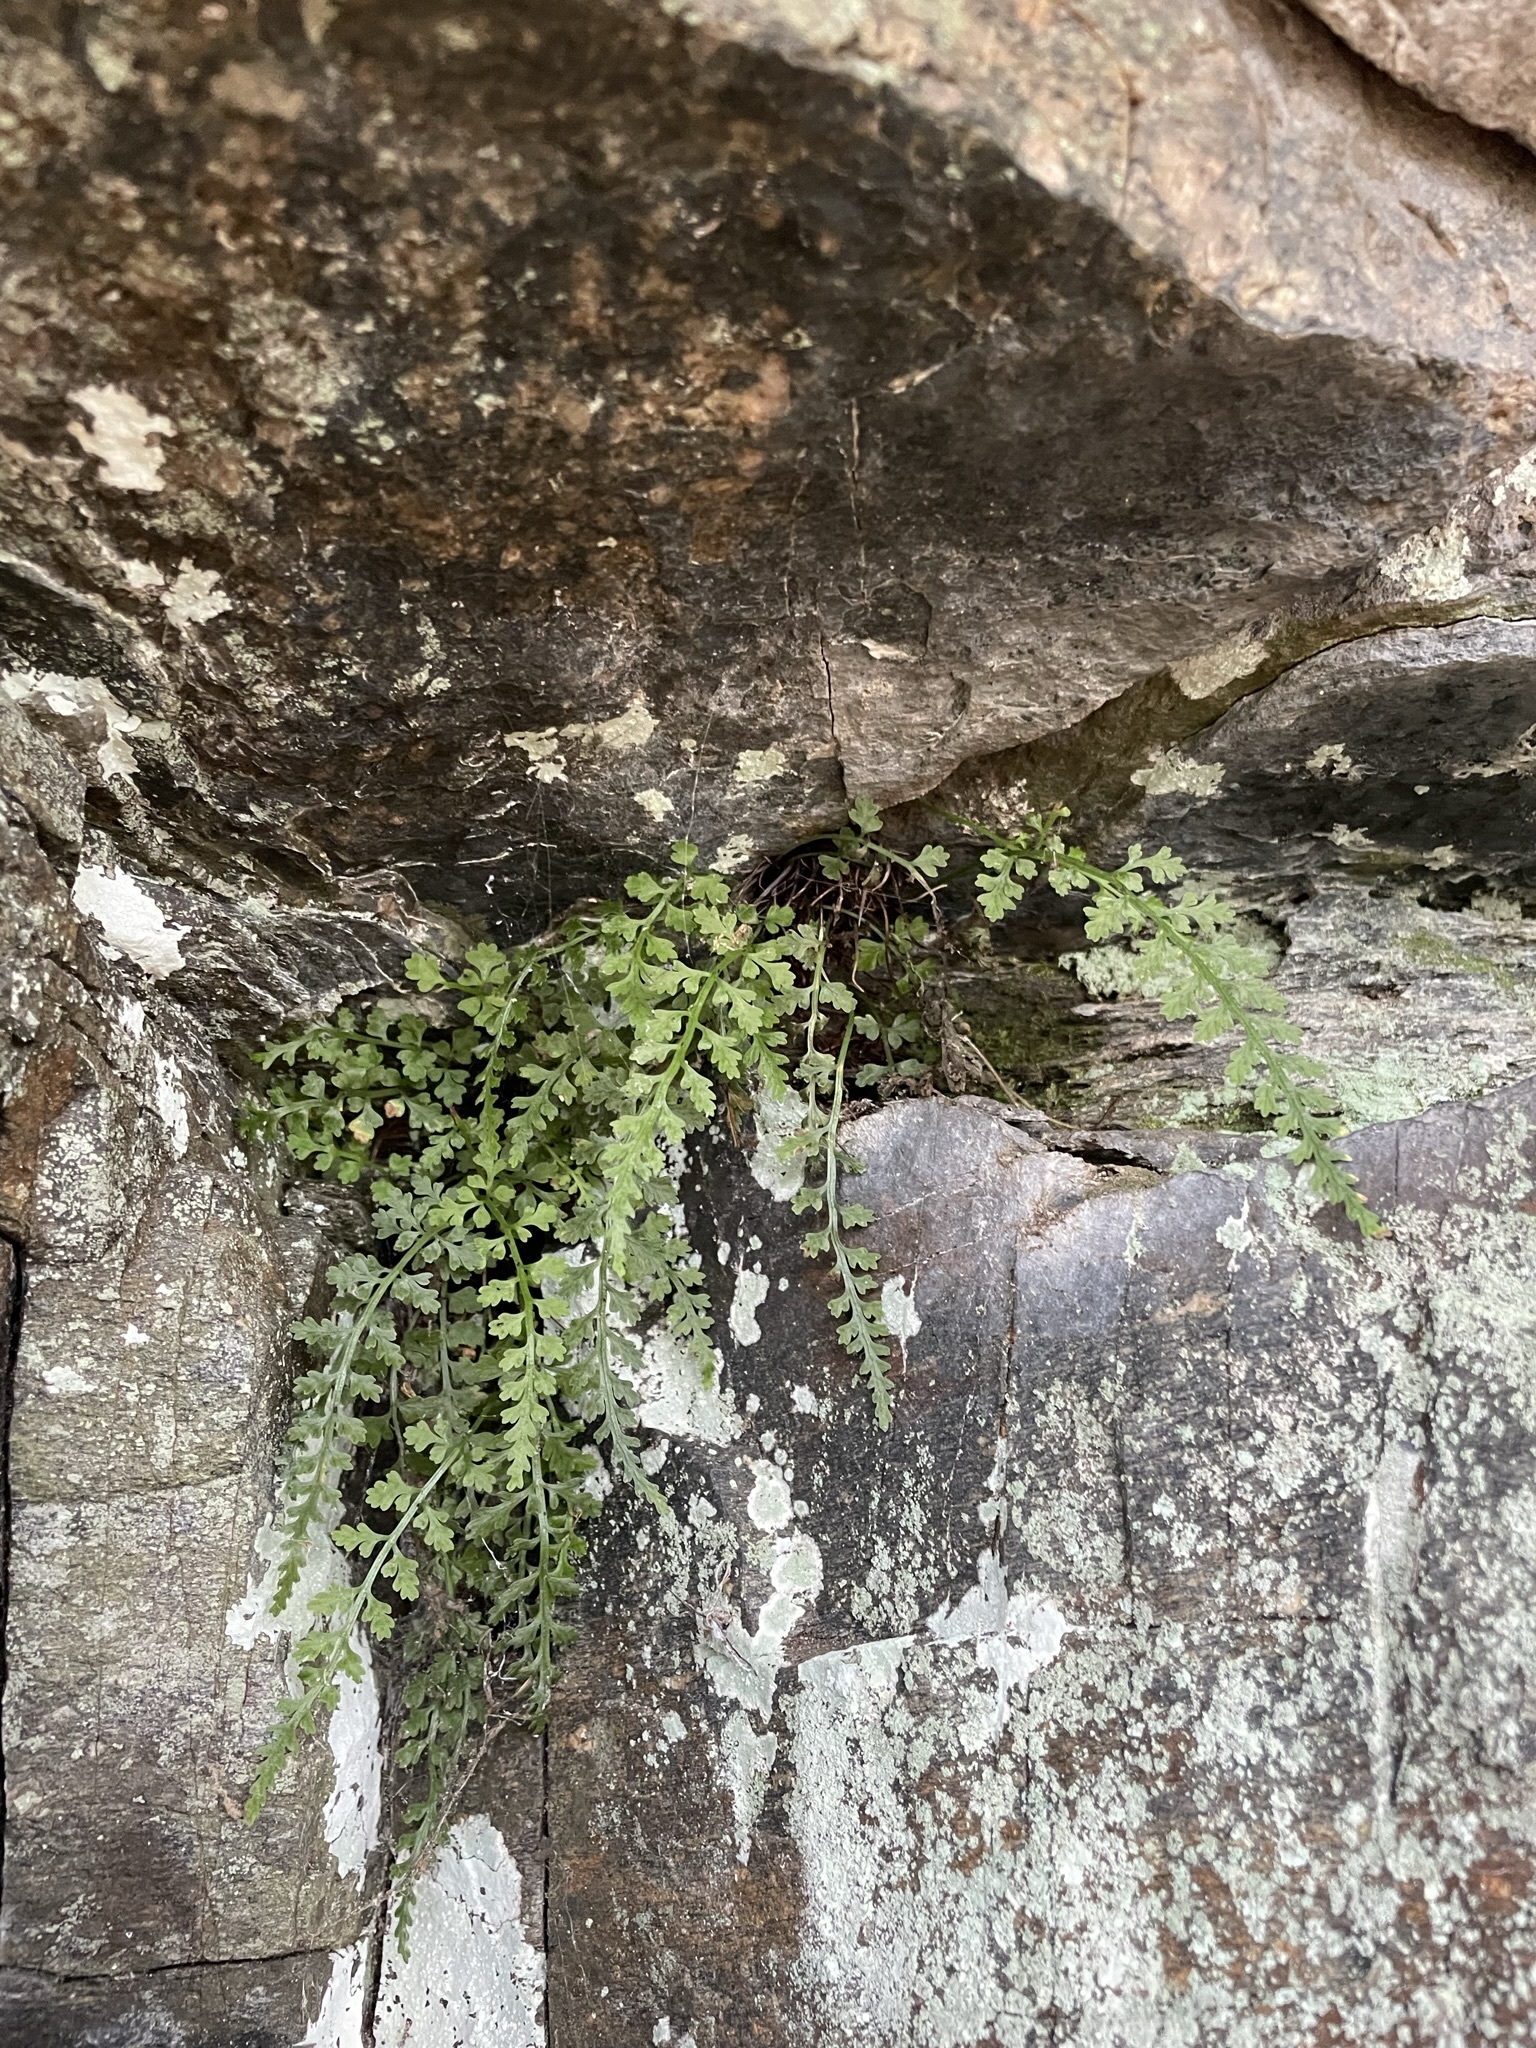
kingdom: Plantae
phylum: Tracheophyta
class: Polypodiopsida
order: Polypodiales
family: Aspleniaceae
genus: Asplenium
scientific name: Asplenium montanum
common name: Mountain spleenwort
